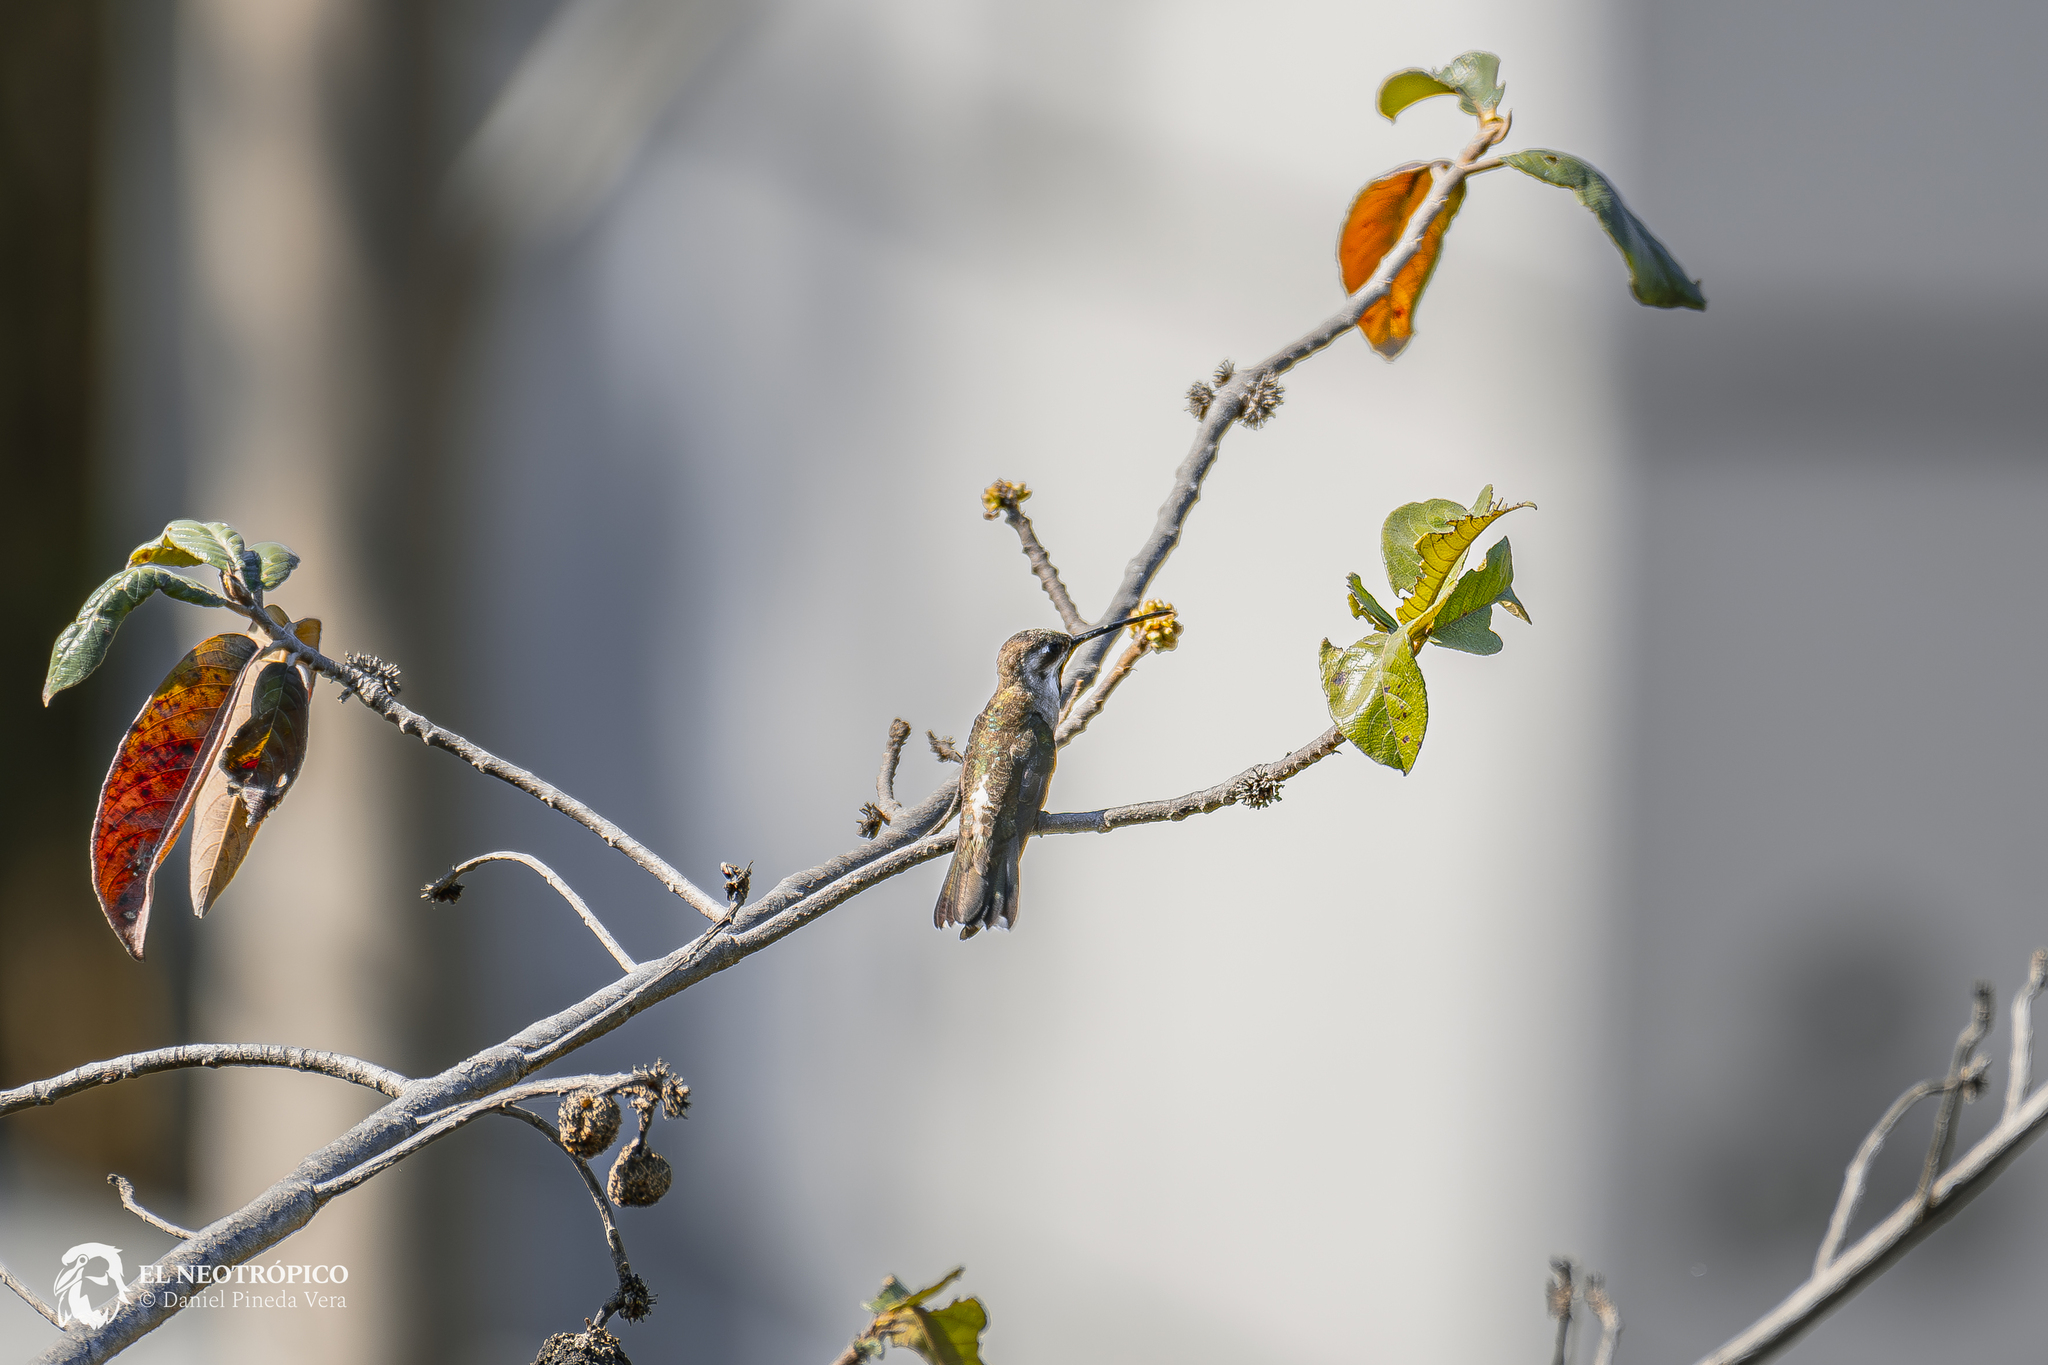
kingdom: Animalia
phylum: Chordata
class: Aves
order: Apodiformes
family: Trochilidae
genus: Heliomaster
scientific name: Heliomaster constantii
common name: Plain-capped starthroat
